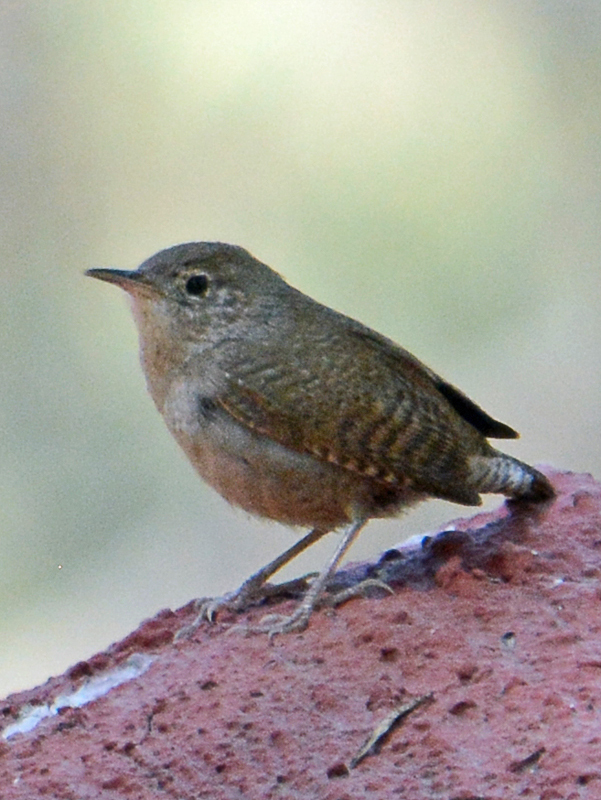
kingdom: Animalia
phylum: Chordata
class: Aves
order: Passeriformes
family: Troglodytidae
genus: Troglodytes
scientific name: Troglodytes aedon
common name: House wren
